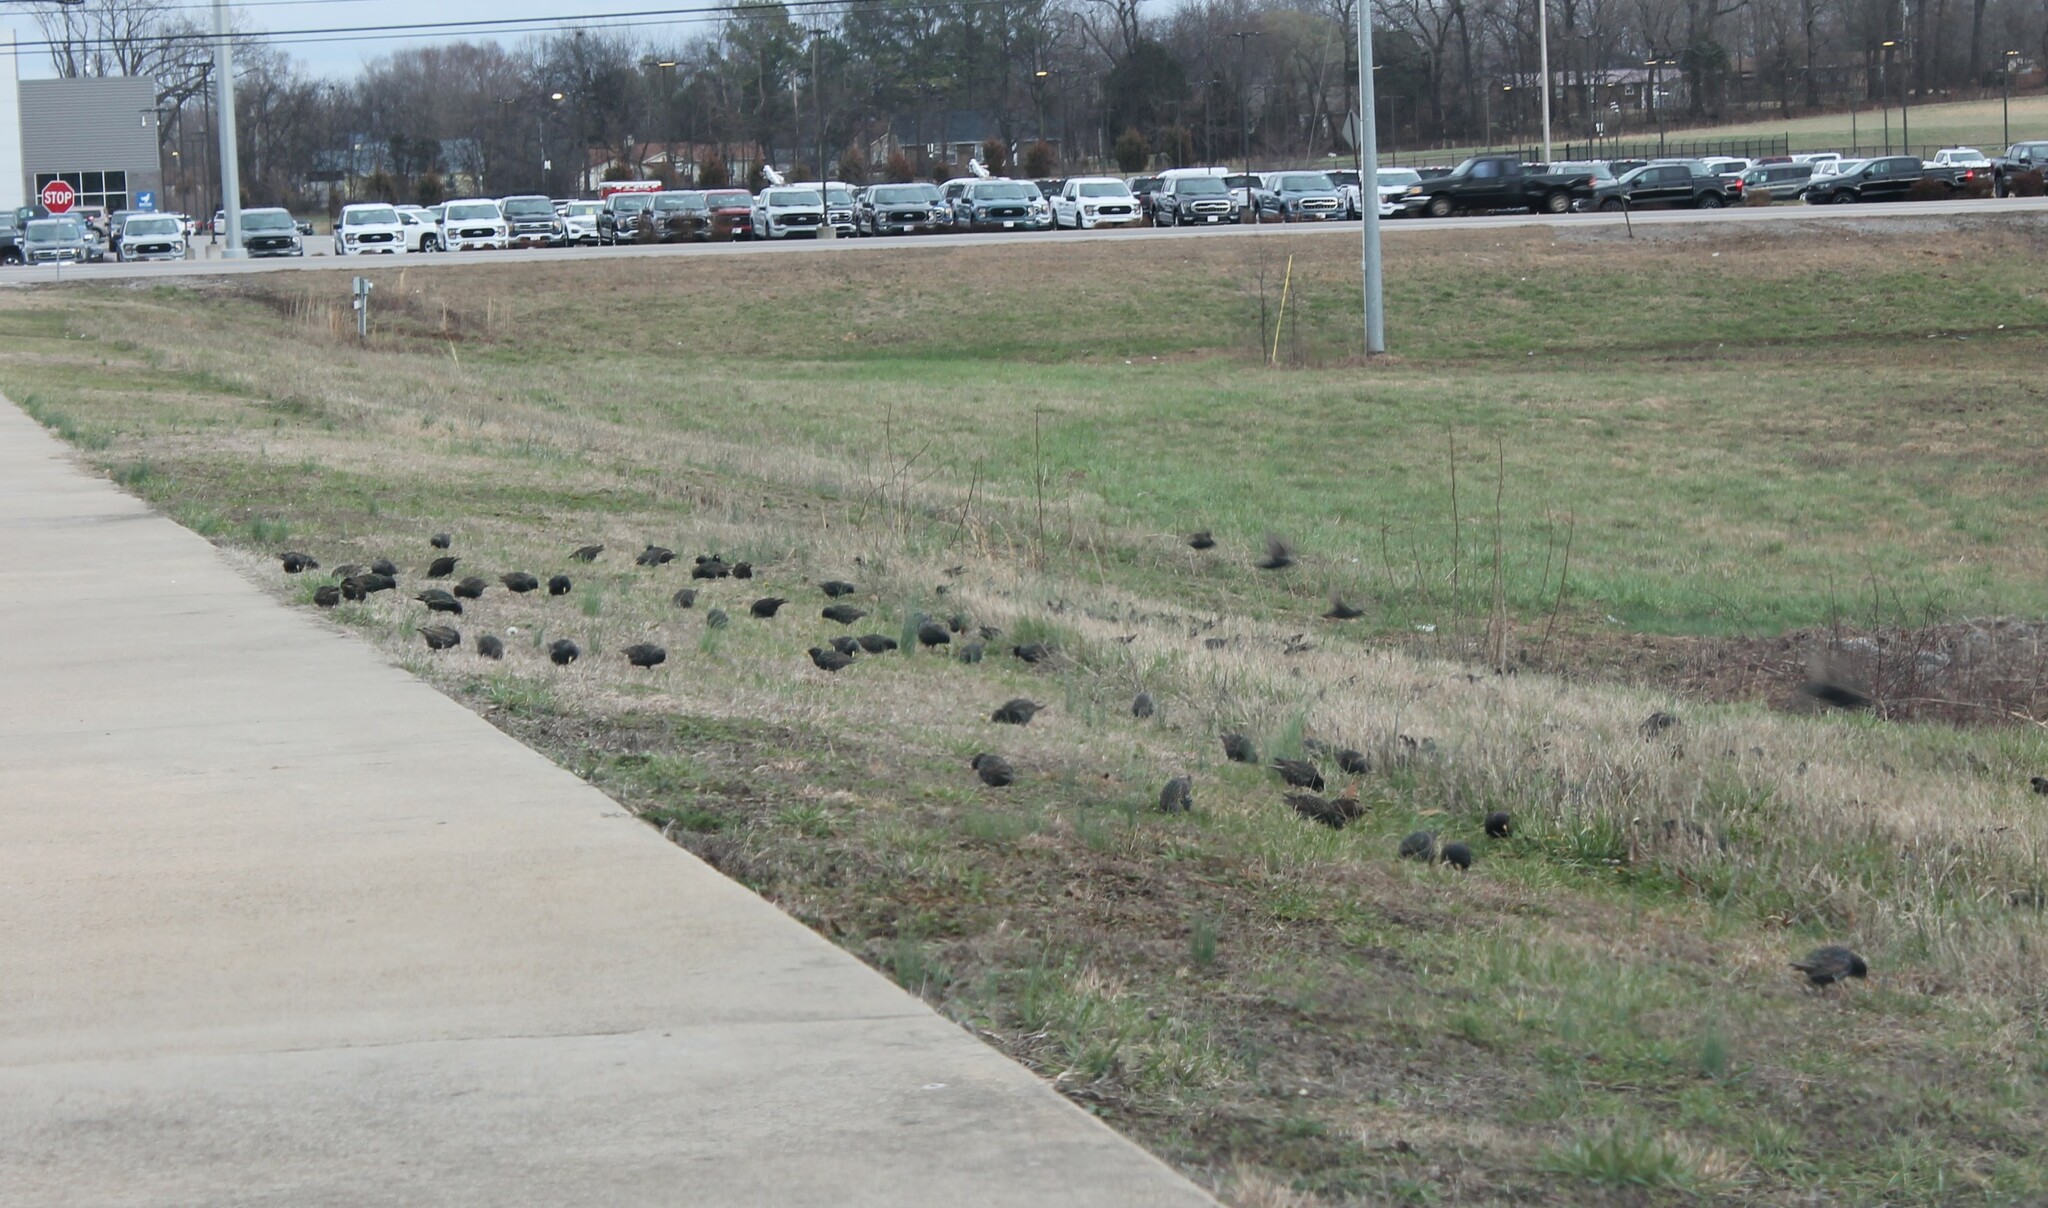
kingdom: Animalia
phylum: Chordata
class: Aves
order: Passeriformes
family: Sturnidae
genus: Sturnus
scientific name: Sturnus vulgaris
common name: Common starling
